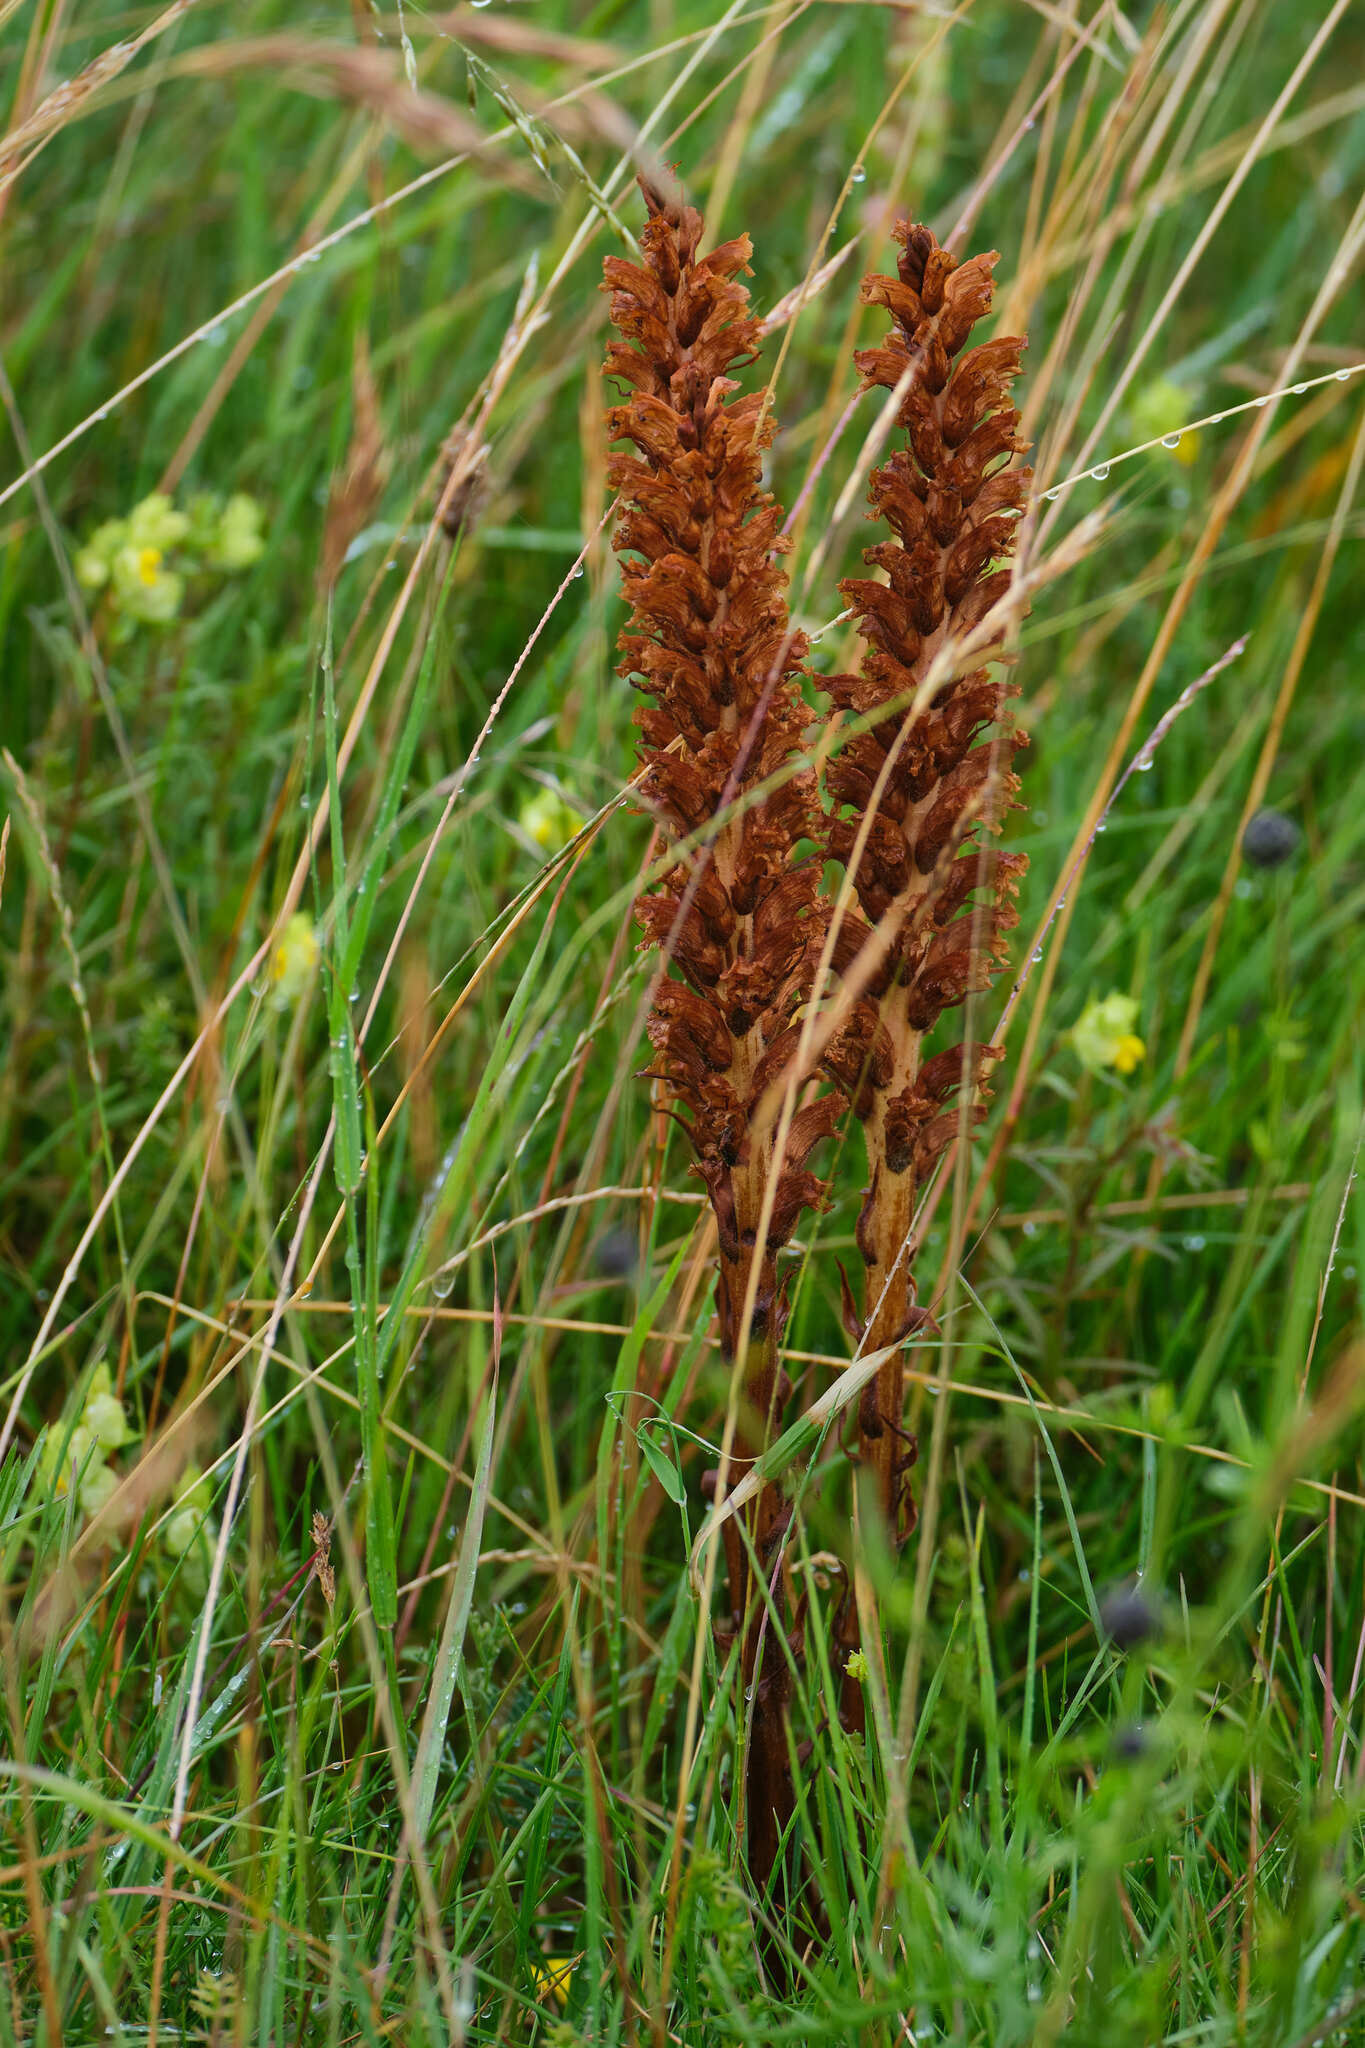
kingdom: Plantae
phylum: Tracheophyta
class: Magnoliopsida
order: Lamiales
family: Orobanchaceae
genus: Orobanche
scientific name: Orobanche elatior
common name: Knapweed broomrape
